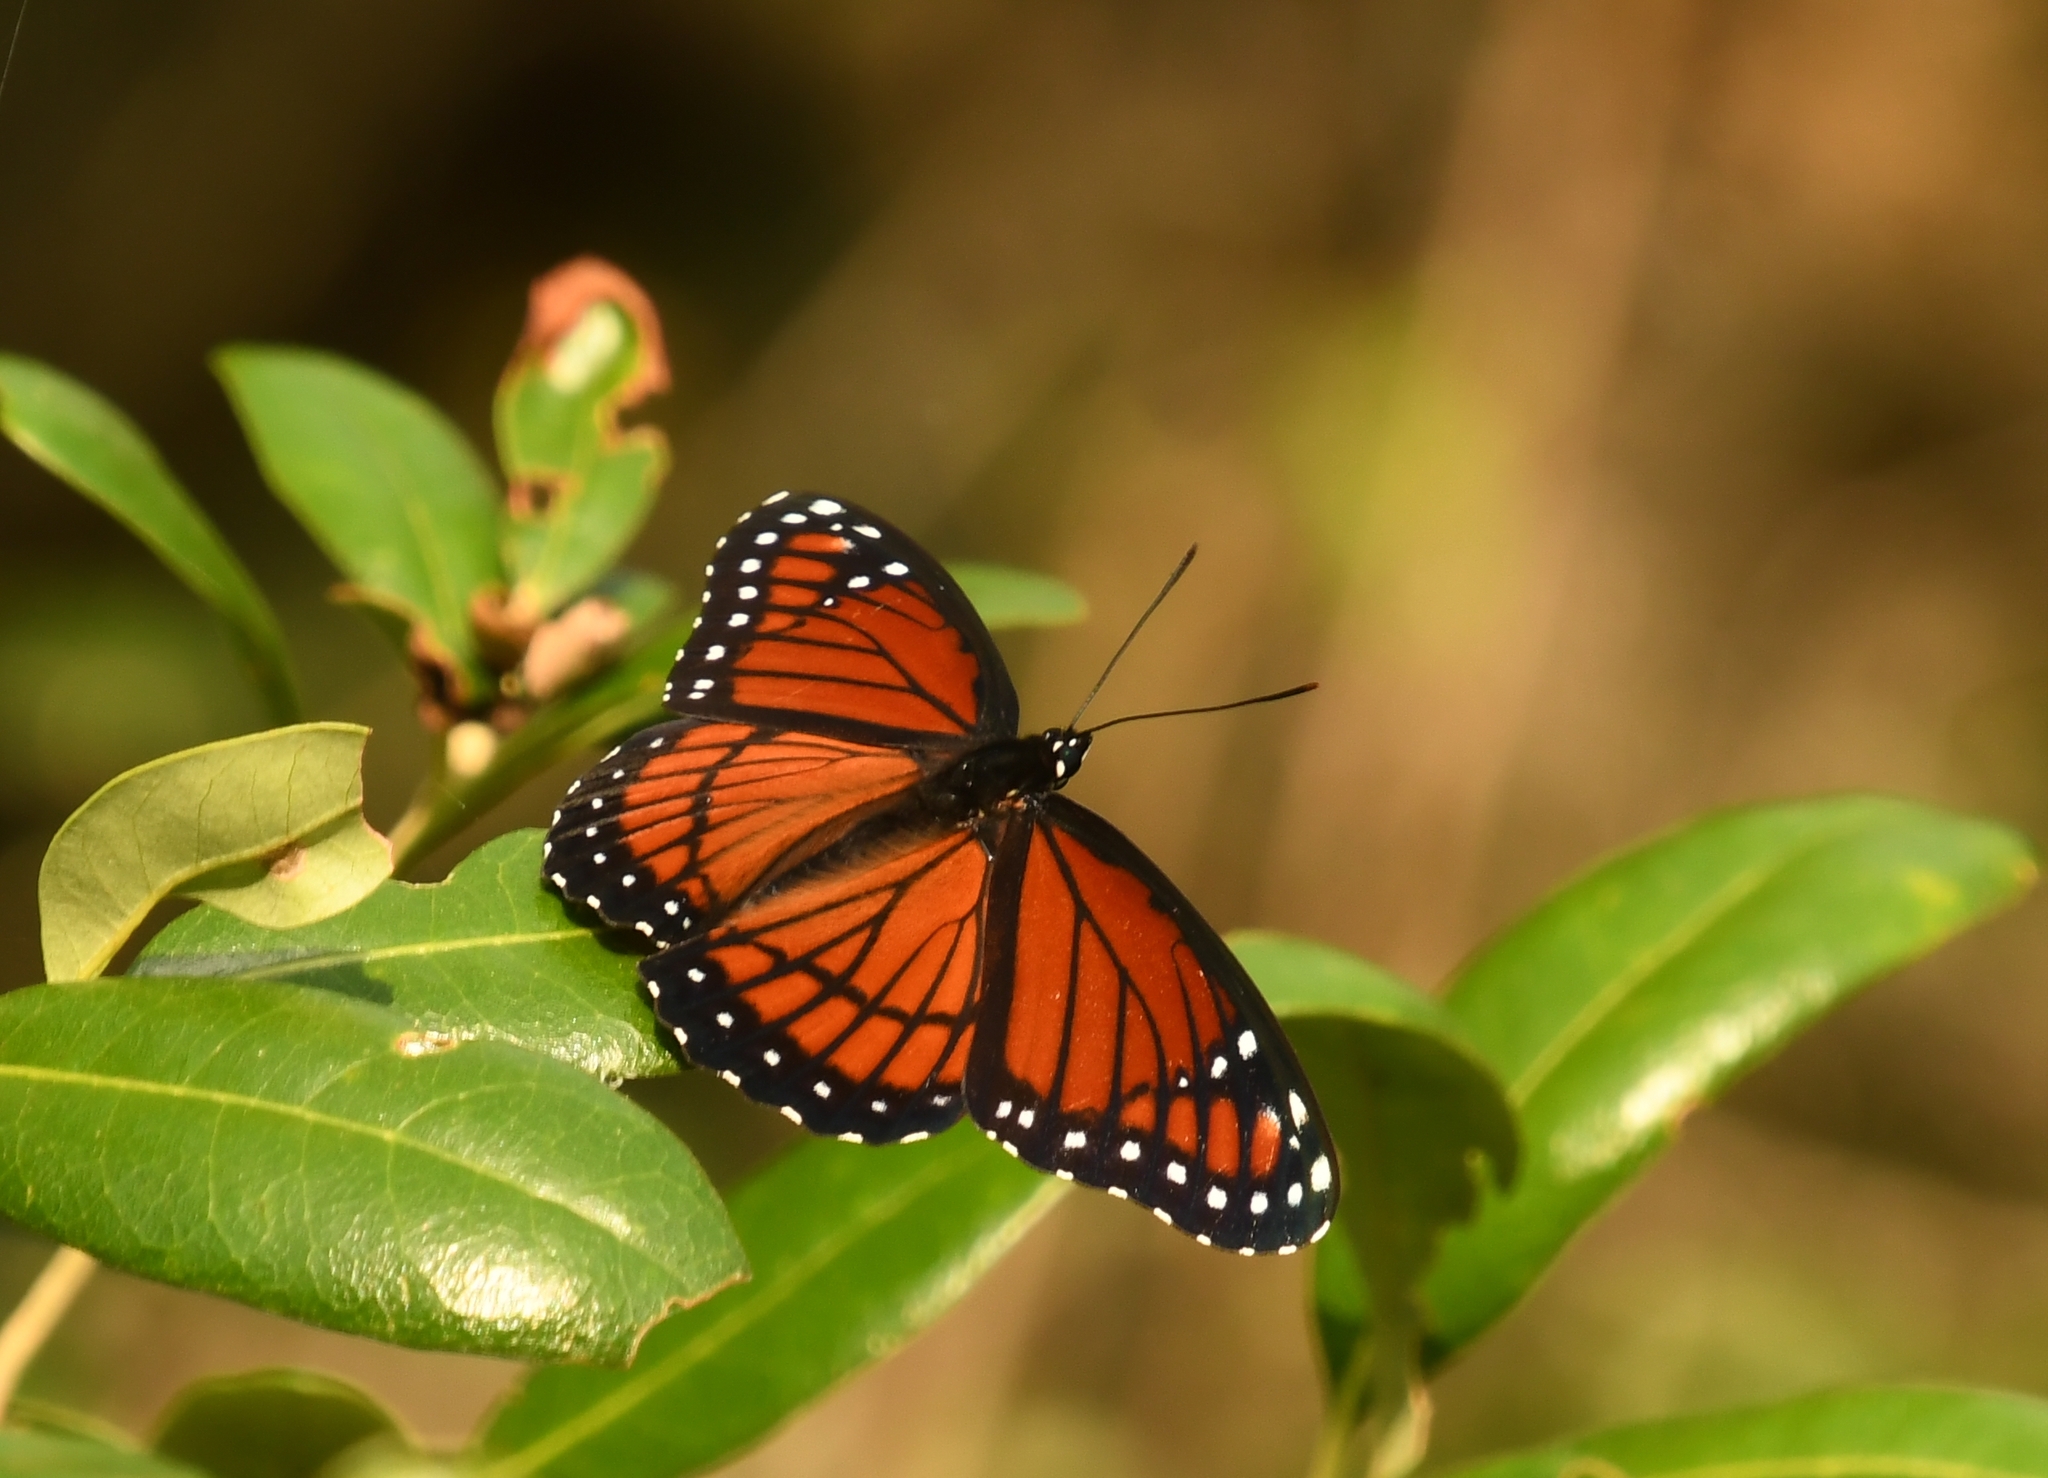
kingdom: Animalia
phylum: Arthropoda
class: Insecta
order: Lepidoptera
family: Nymphalidae
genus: Limenitis
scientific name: Limenitis archippus
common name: Viceroy
